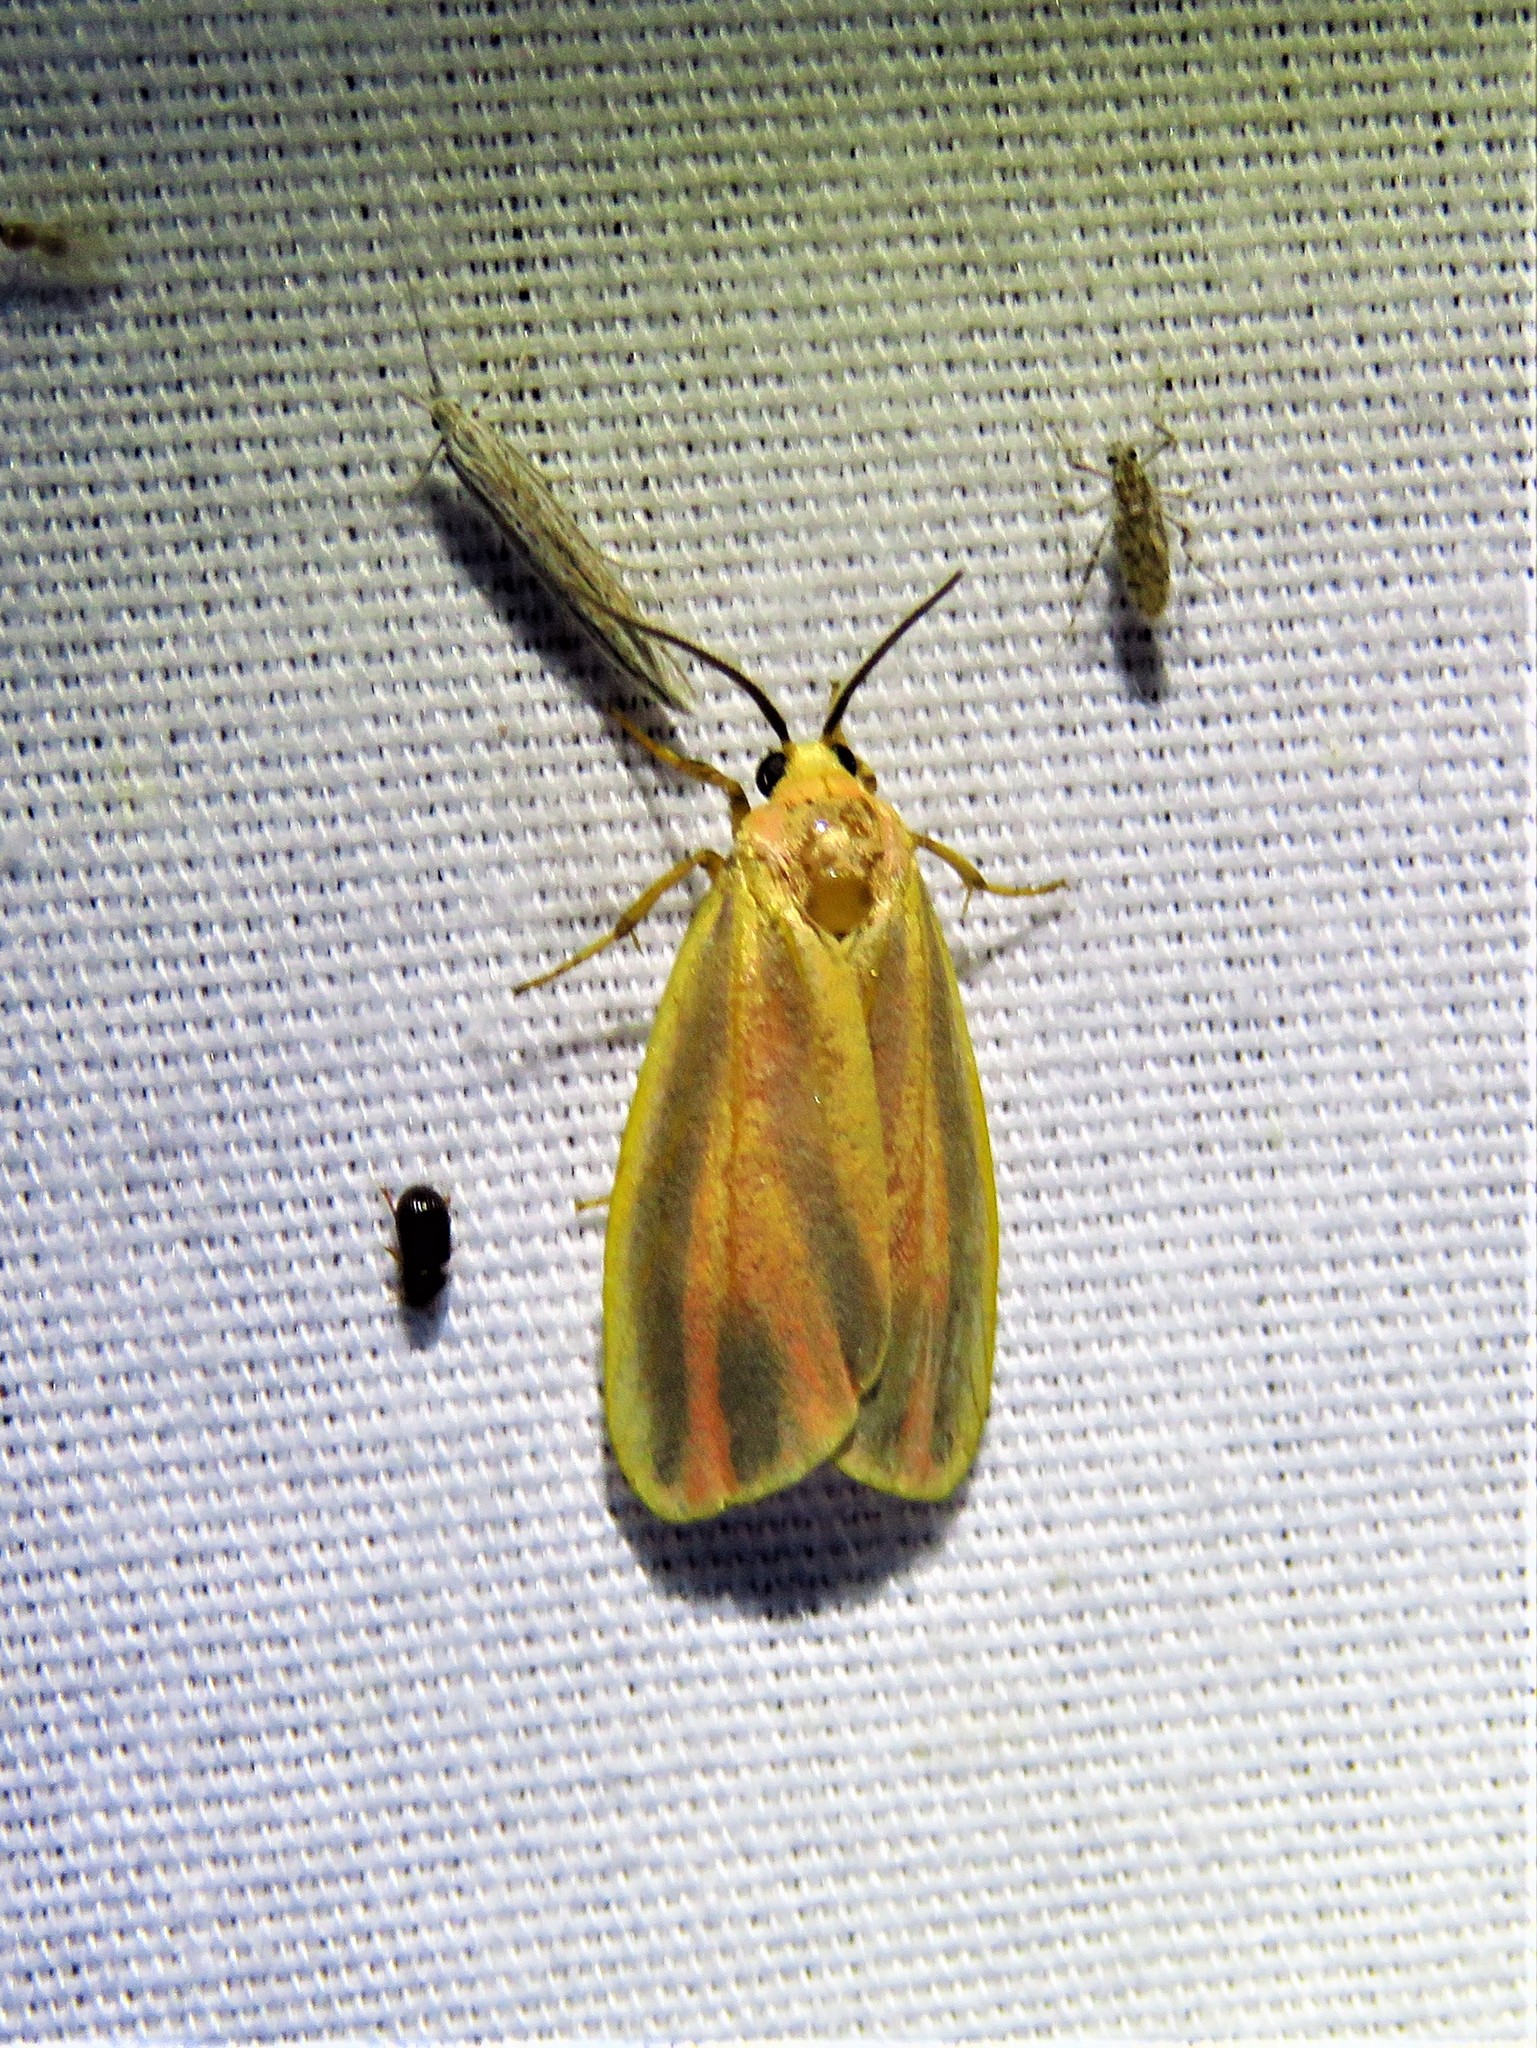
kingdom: Animalia
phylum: Arthropoda
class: Insecta
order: Lepidoptera
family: Erebidae
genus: Hypoprepia
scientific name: Hypoprepia fucosa
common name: Painted lichen moth
